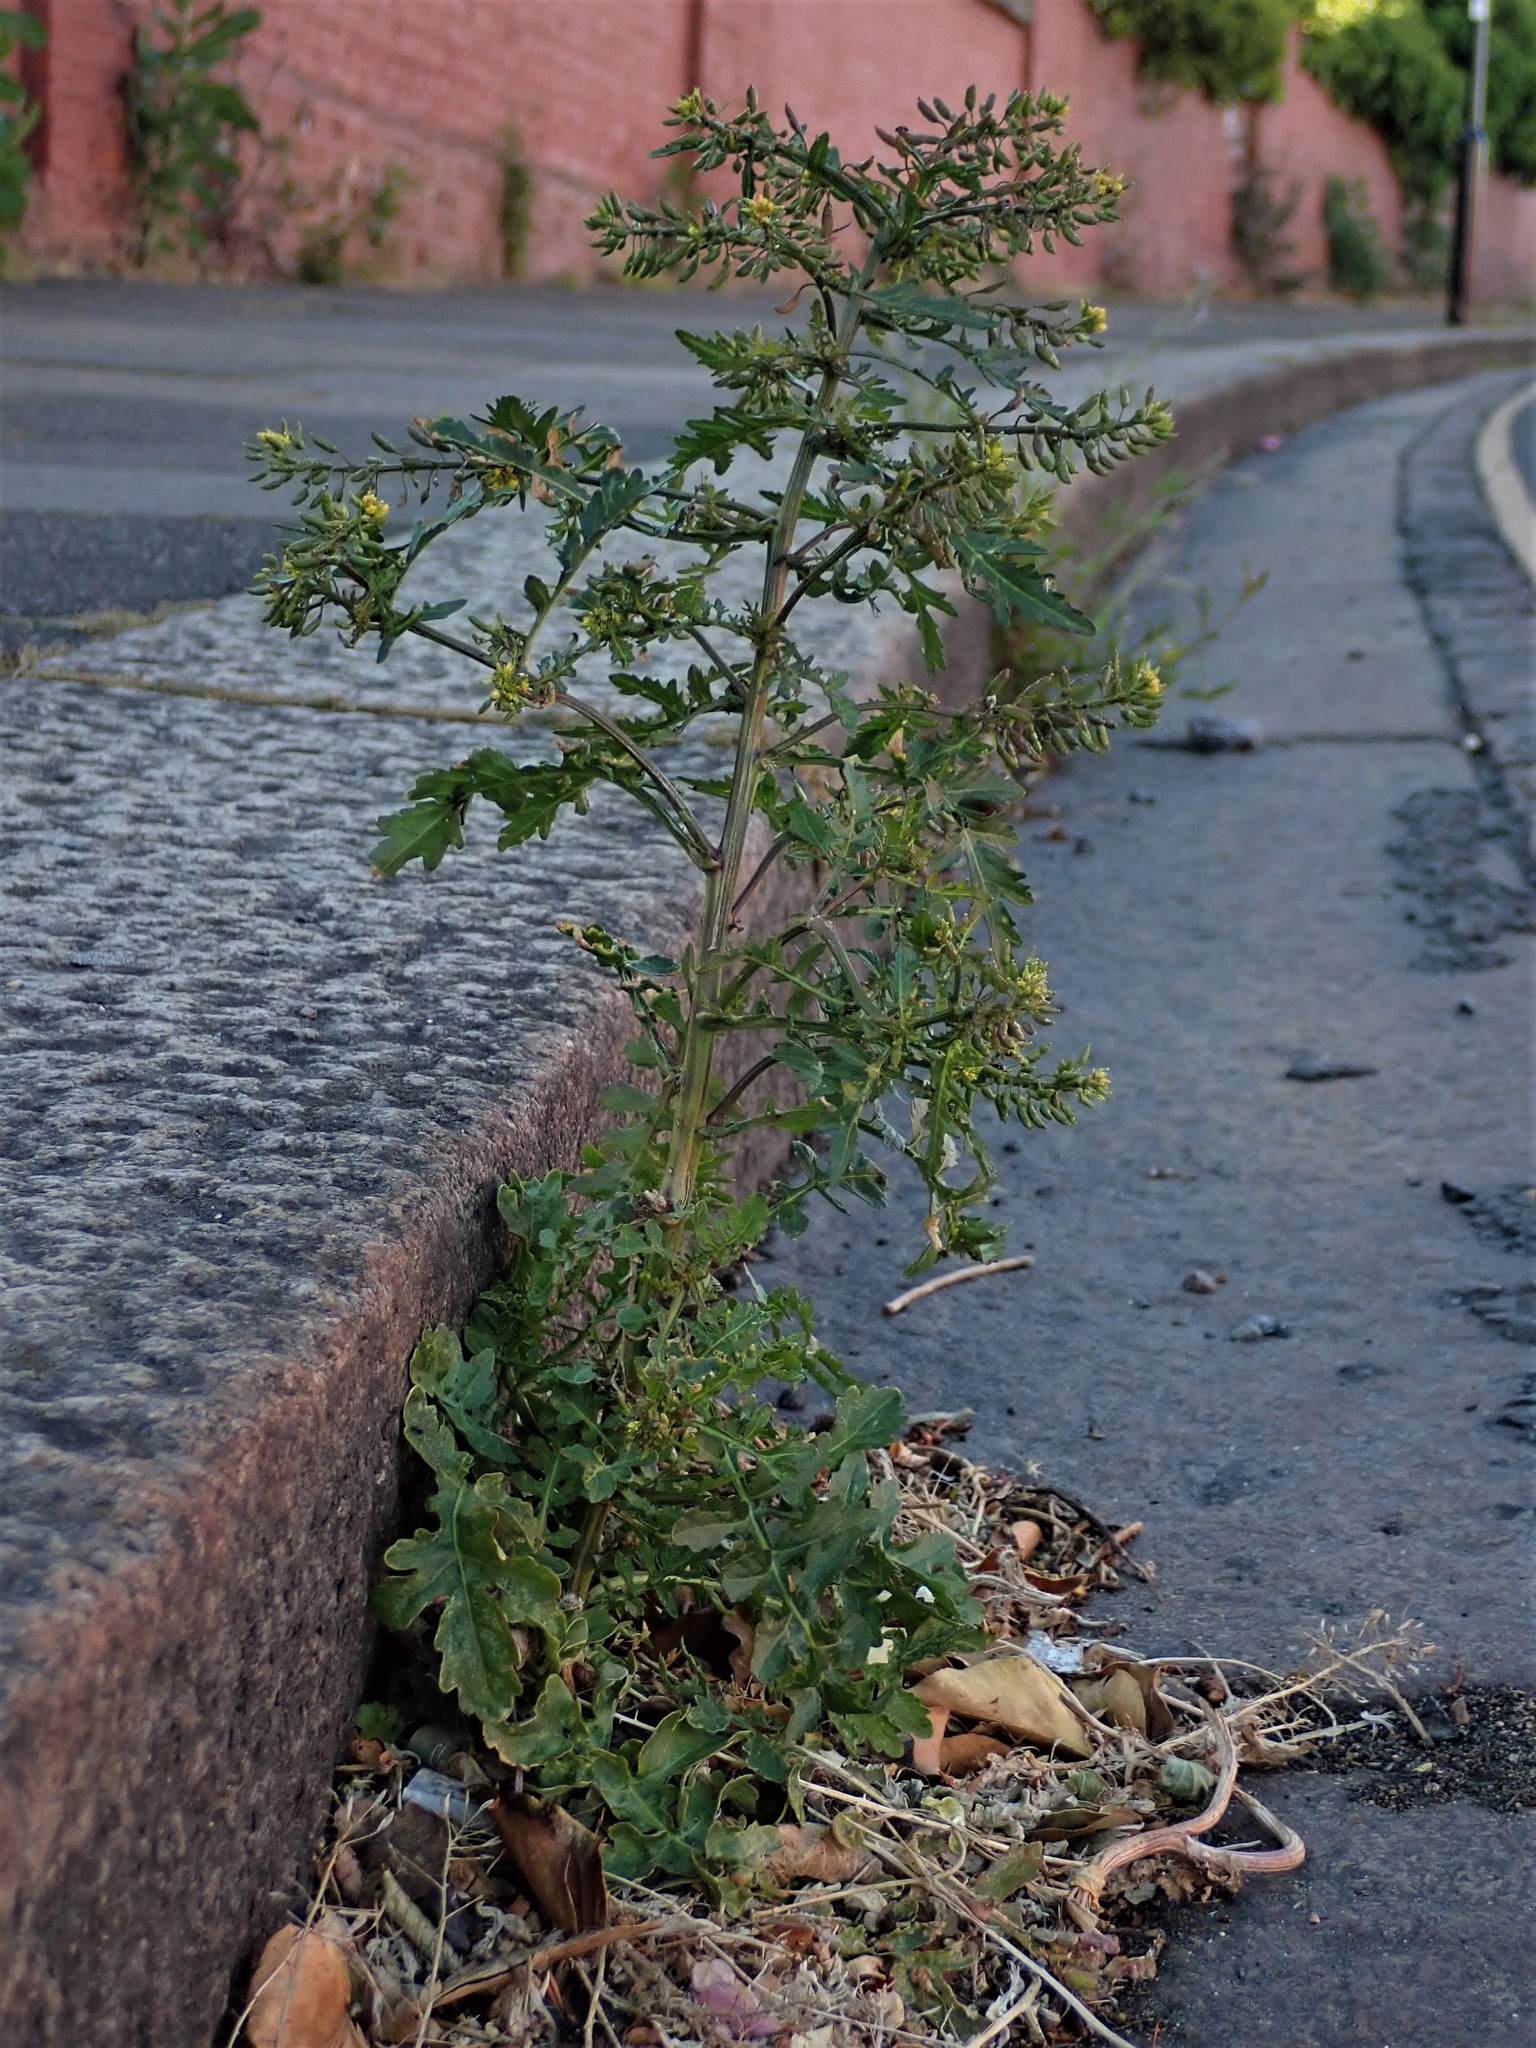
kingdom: Plantae
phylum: Tracheophyta
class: Magnoliopsida
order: Brassicales
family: Brassicaceae
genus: Rorippa
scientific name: Rorippa palustris
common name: Marsh yellow-cress
